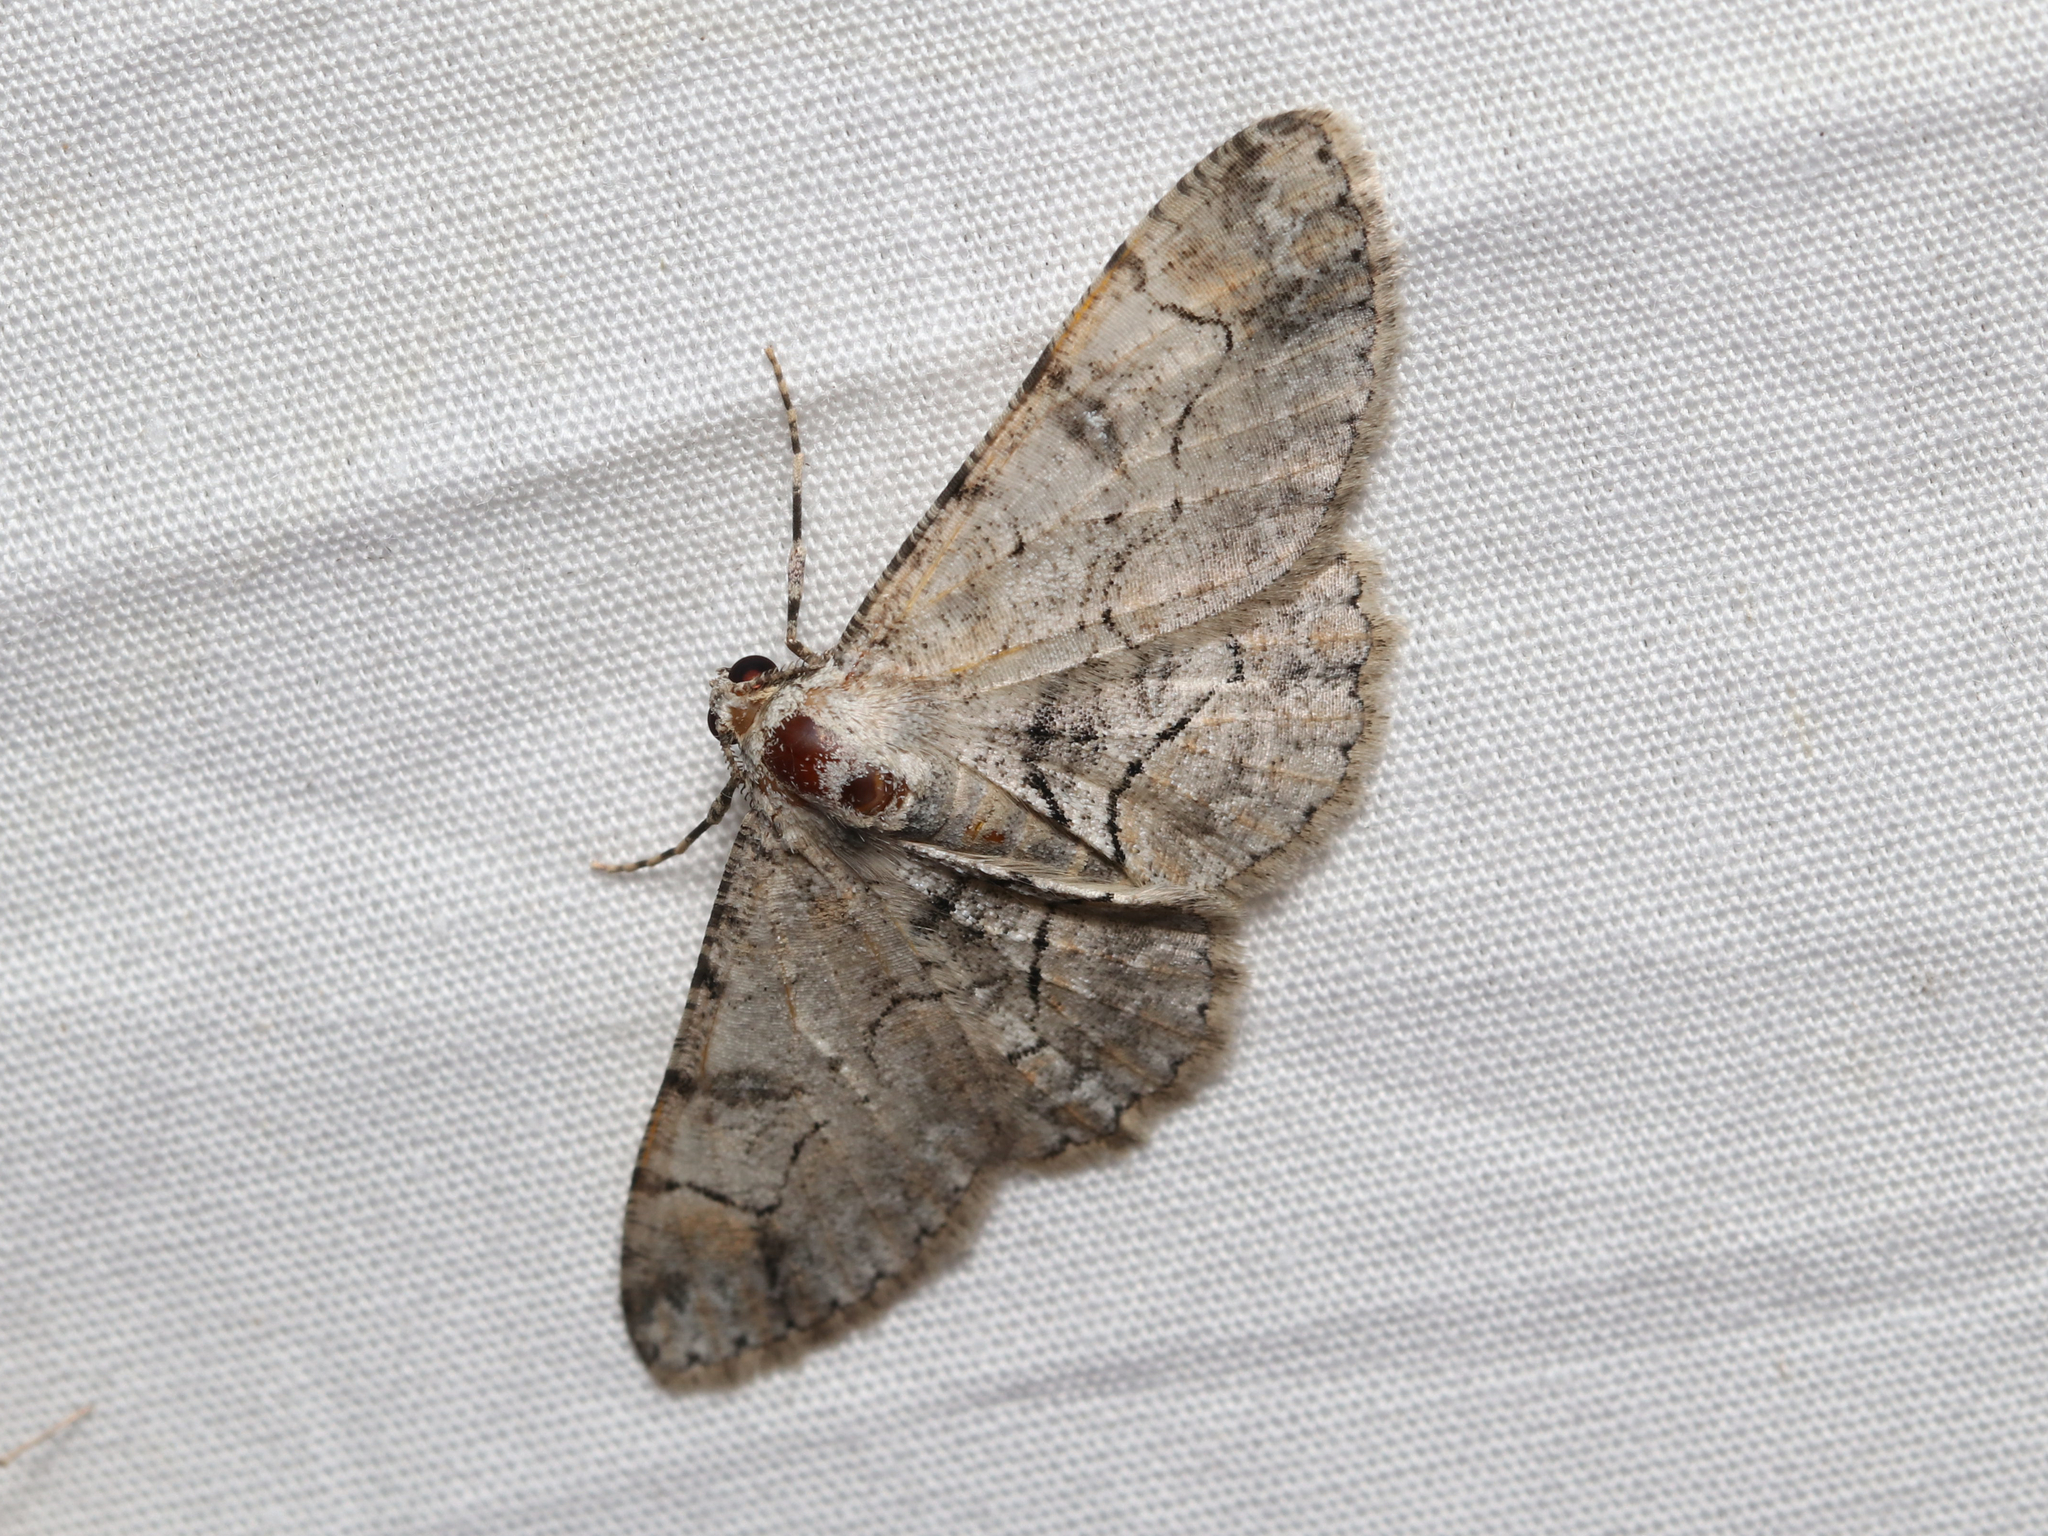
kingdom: Animalia
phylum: Arthropoda
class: Insecta
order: Lepidoptera
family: Geometridae
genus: Iridopsis
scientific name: Iridopsis larvaria
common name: Bent-line gray
